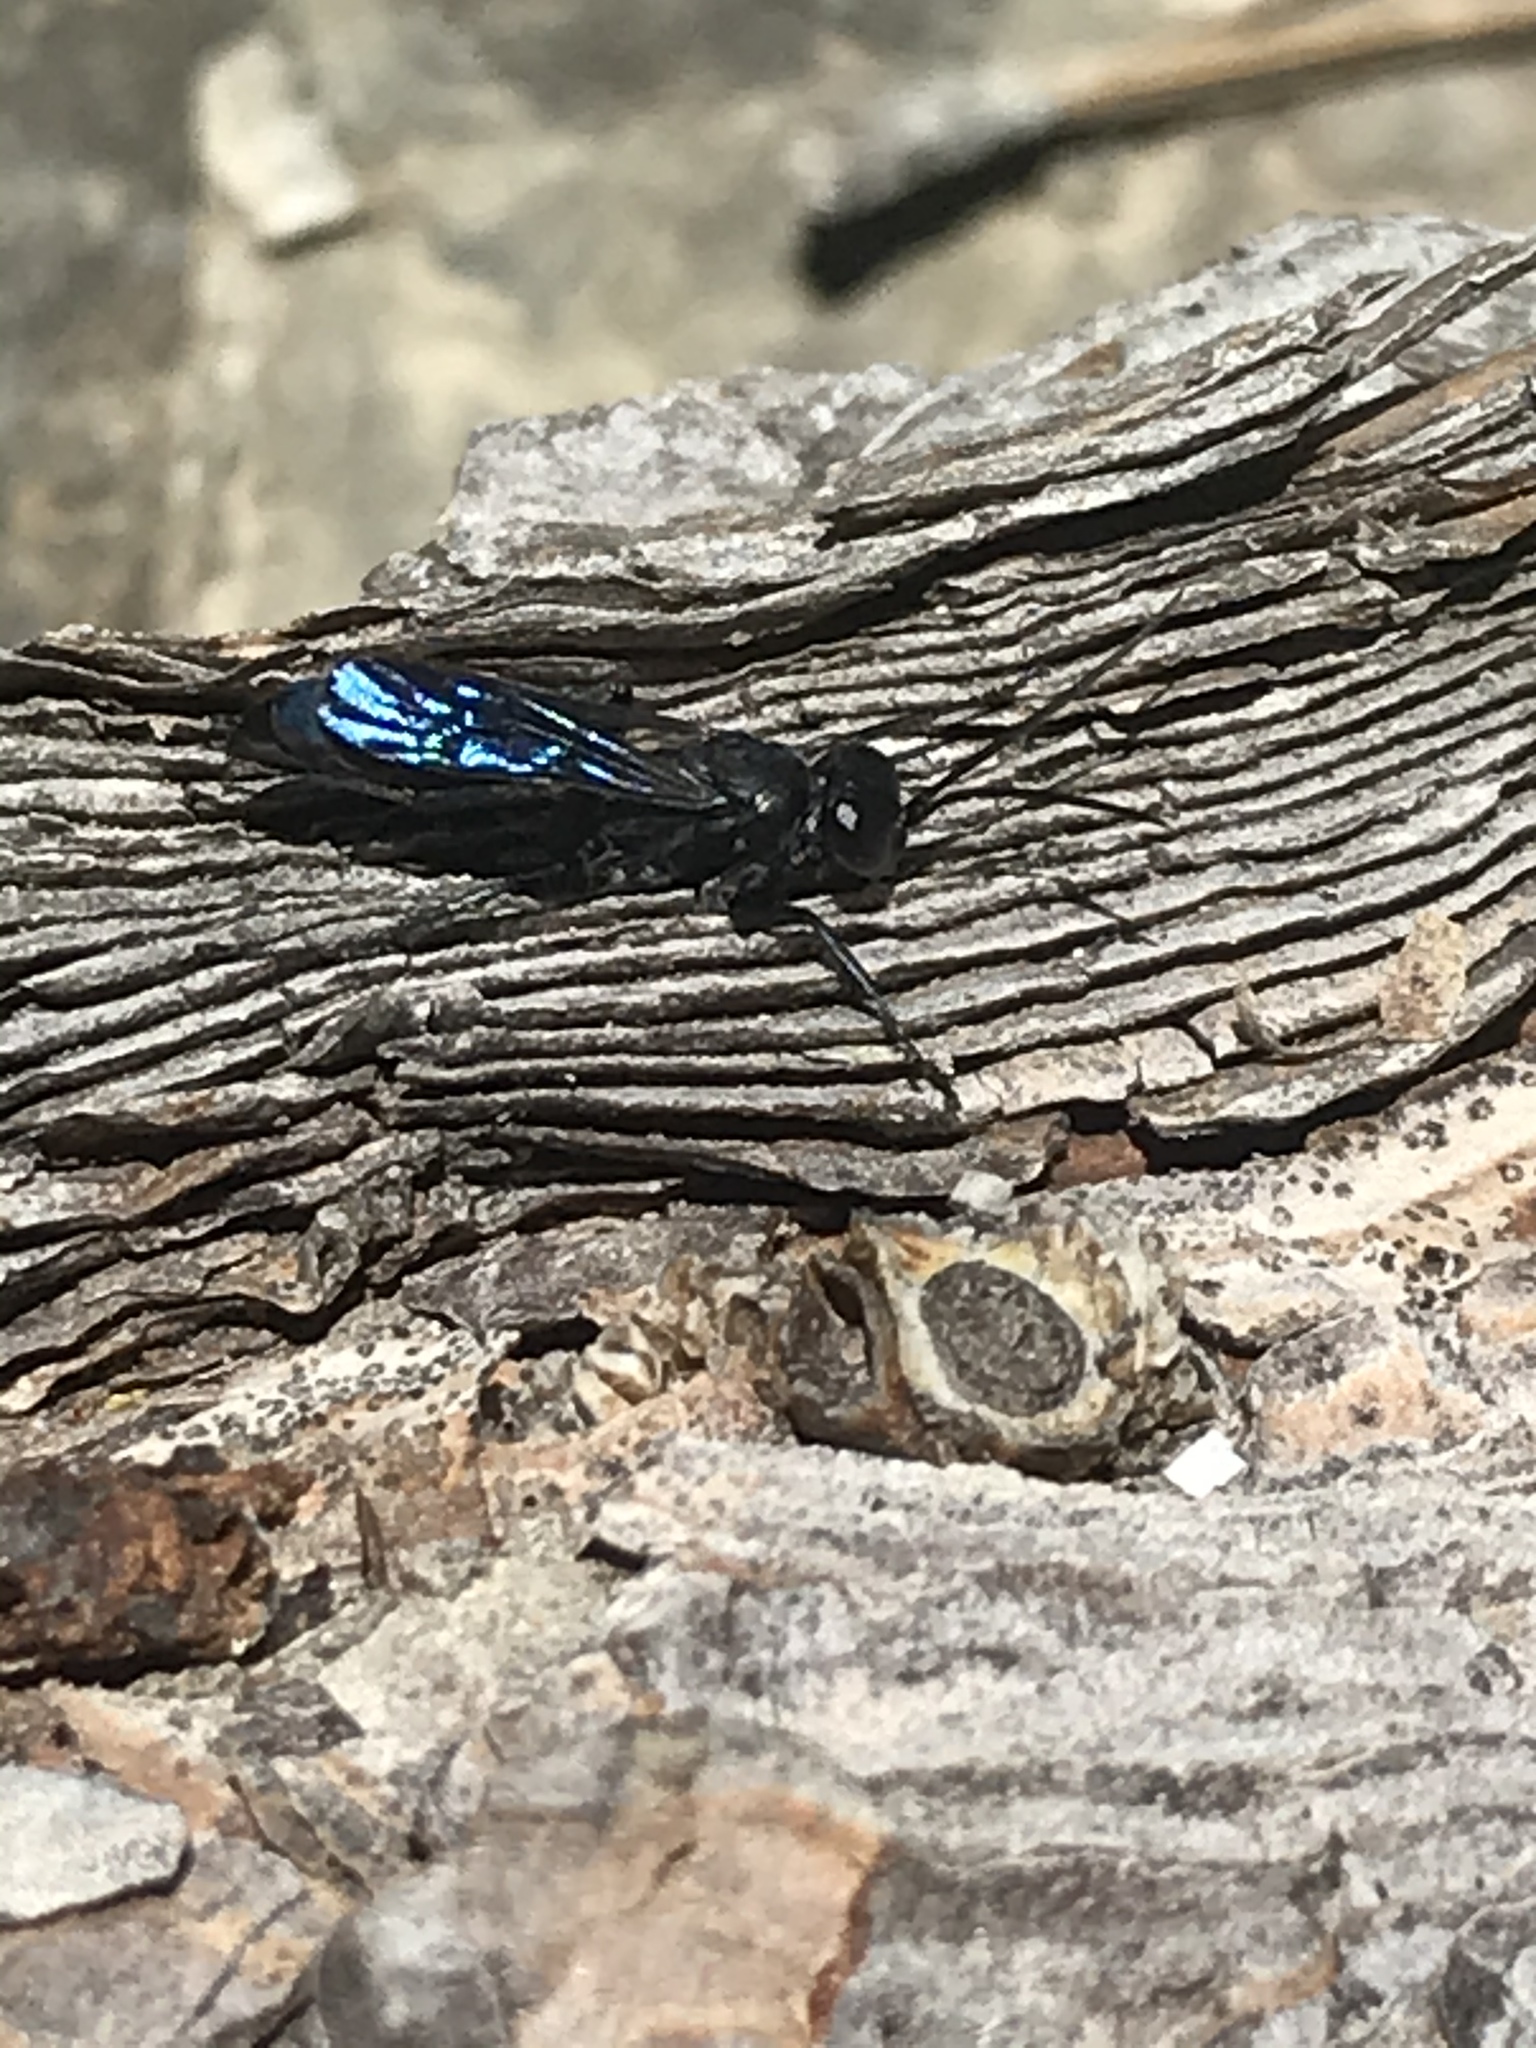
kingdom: Animalia
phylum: Arthropoda
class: Insecta
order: Hymenoptera
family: Pompilidae
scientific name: Pompilidae
